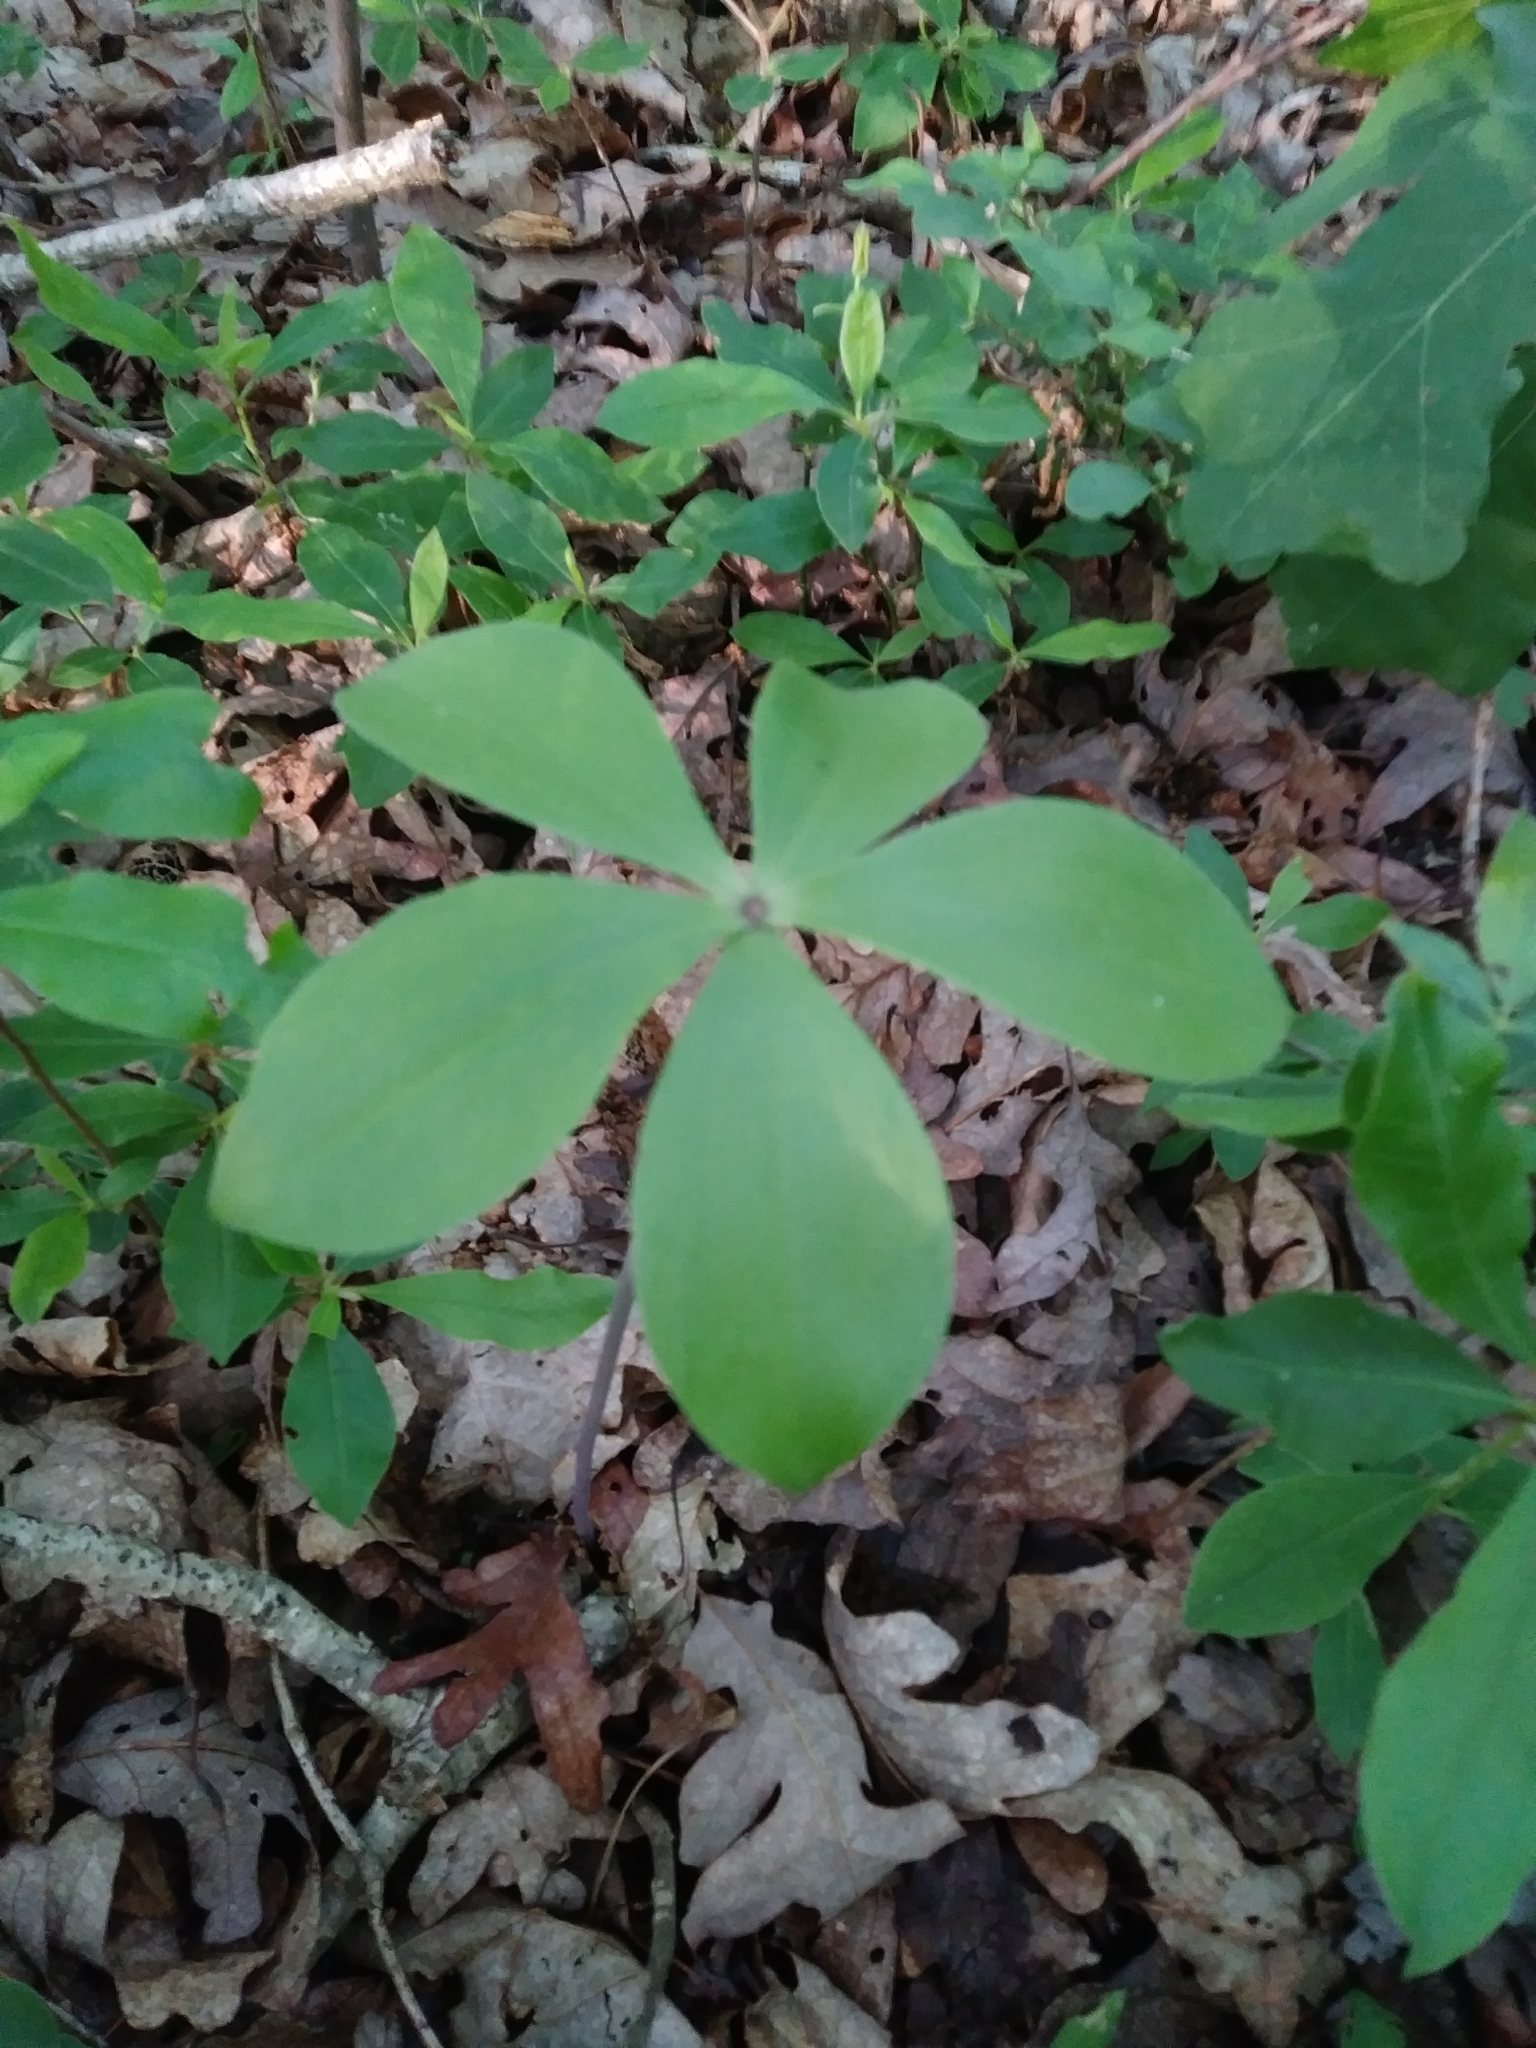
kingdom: Plantae
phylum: Tracheophyta
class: Liliopsida
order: Asparagales
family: Orchidaceae
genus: Isotria
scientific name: Isotria verticillata
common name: Large whorled pogonia
